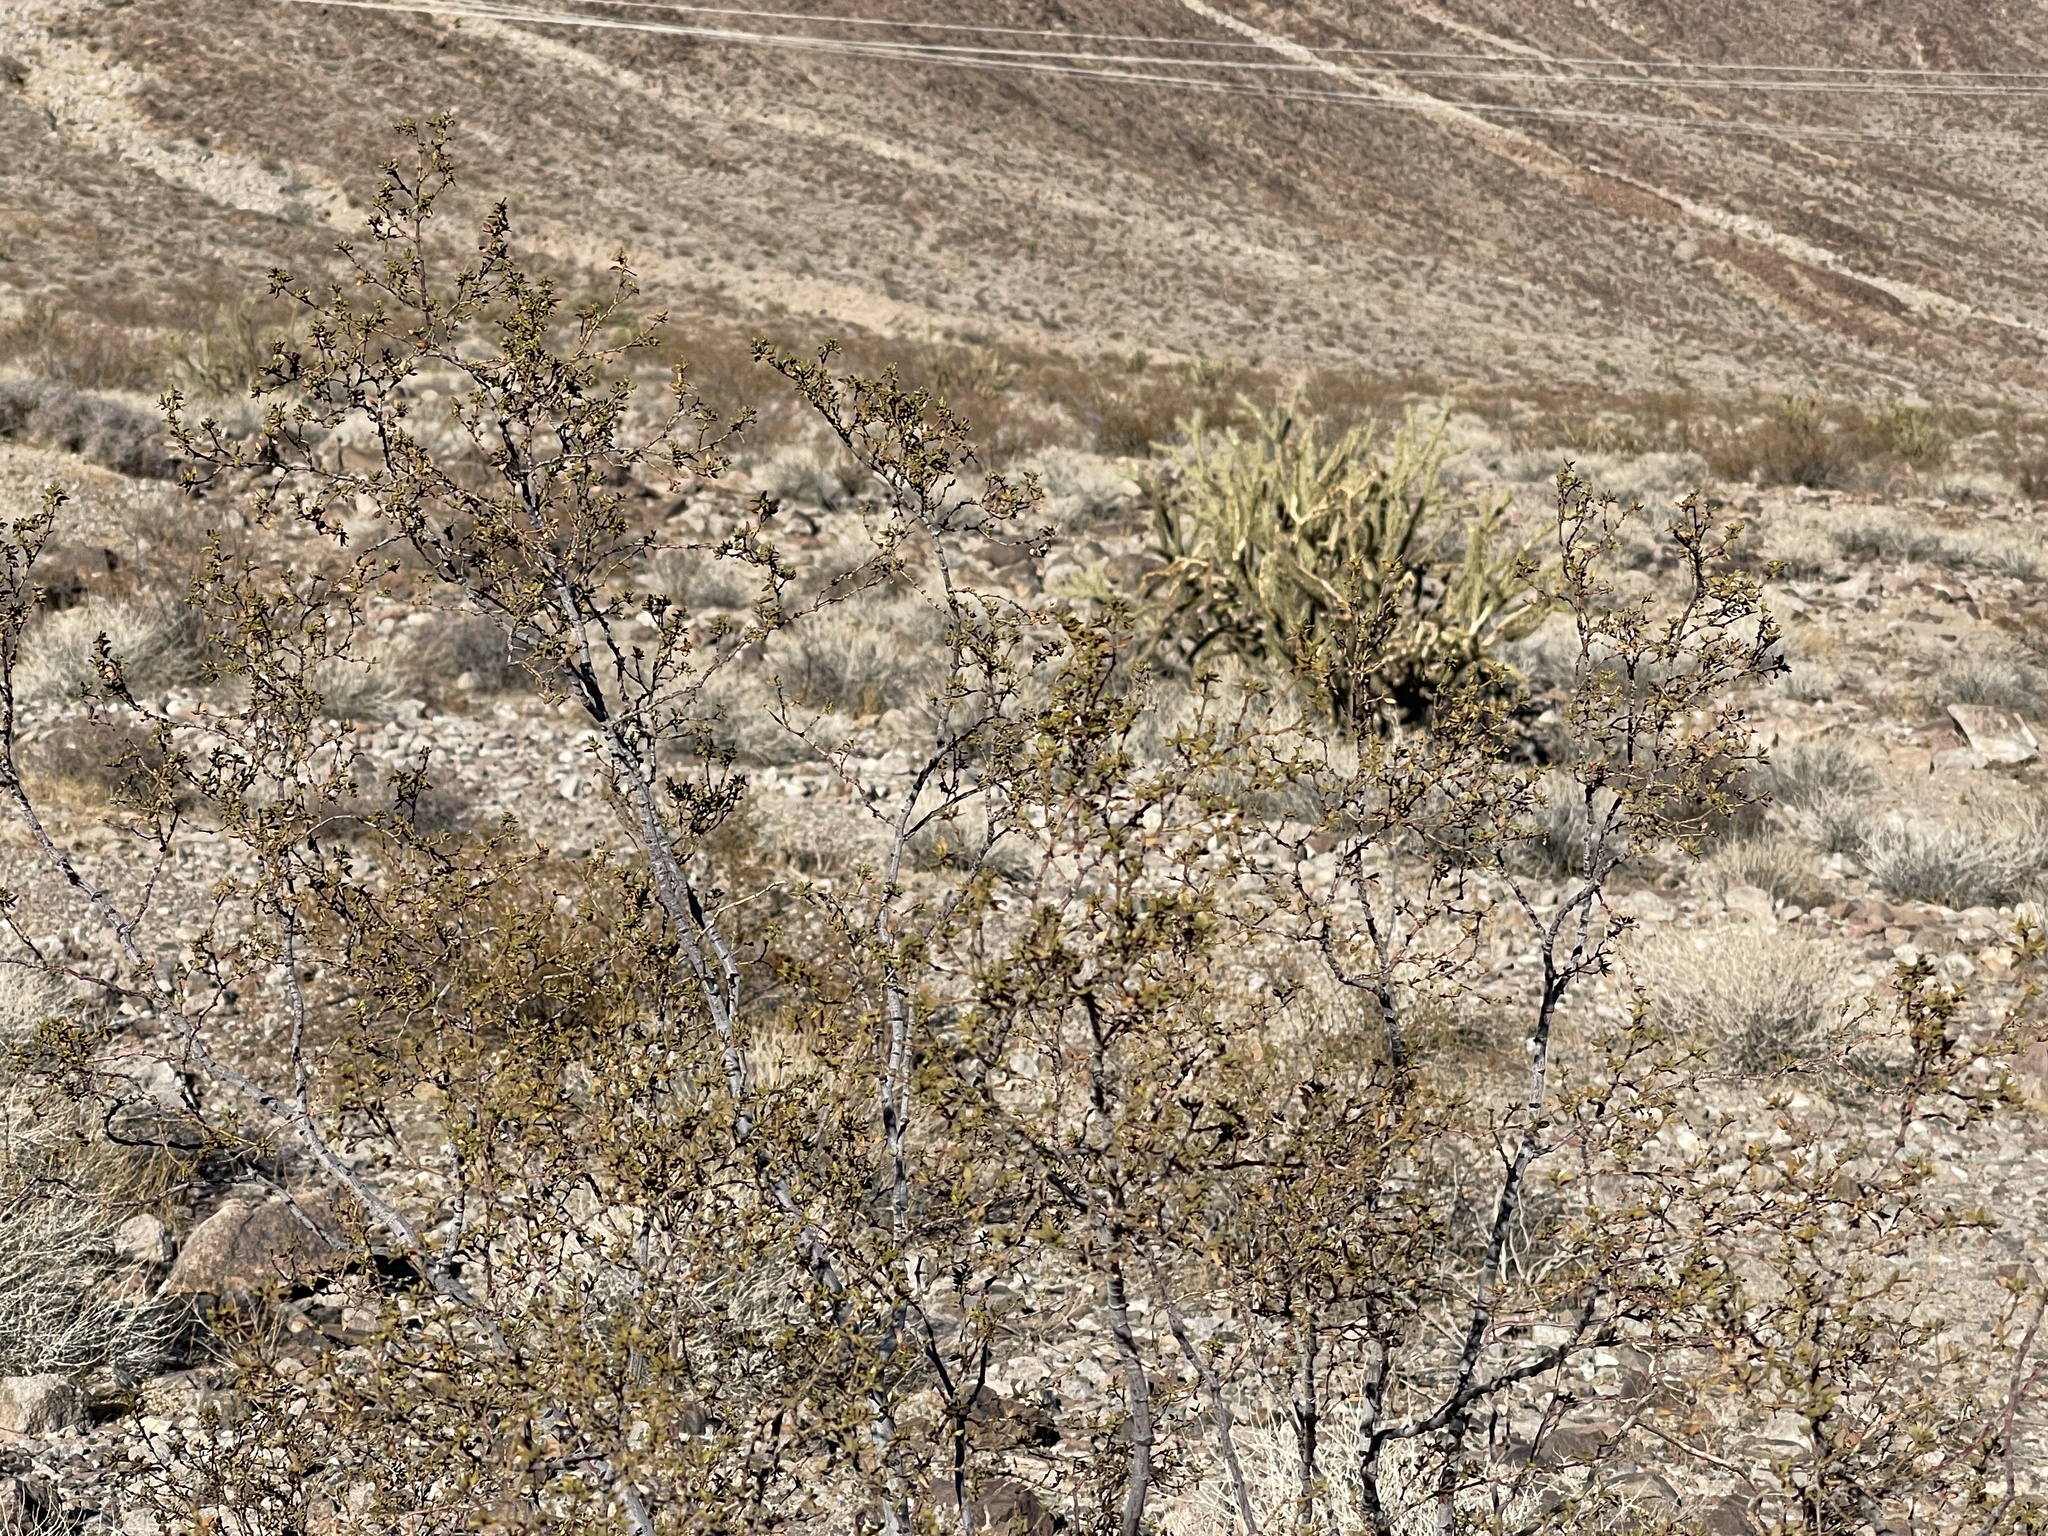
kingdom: Plantae
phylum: Tracheophyta
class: Magnoliopsida
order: Zygophyllales
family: Zygophyllaceae
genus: Larrea
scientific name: Larrea tridentata
